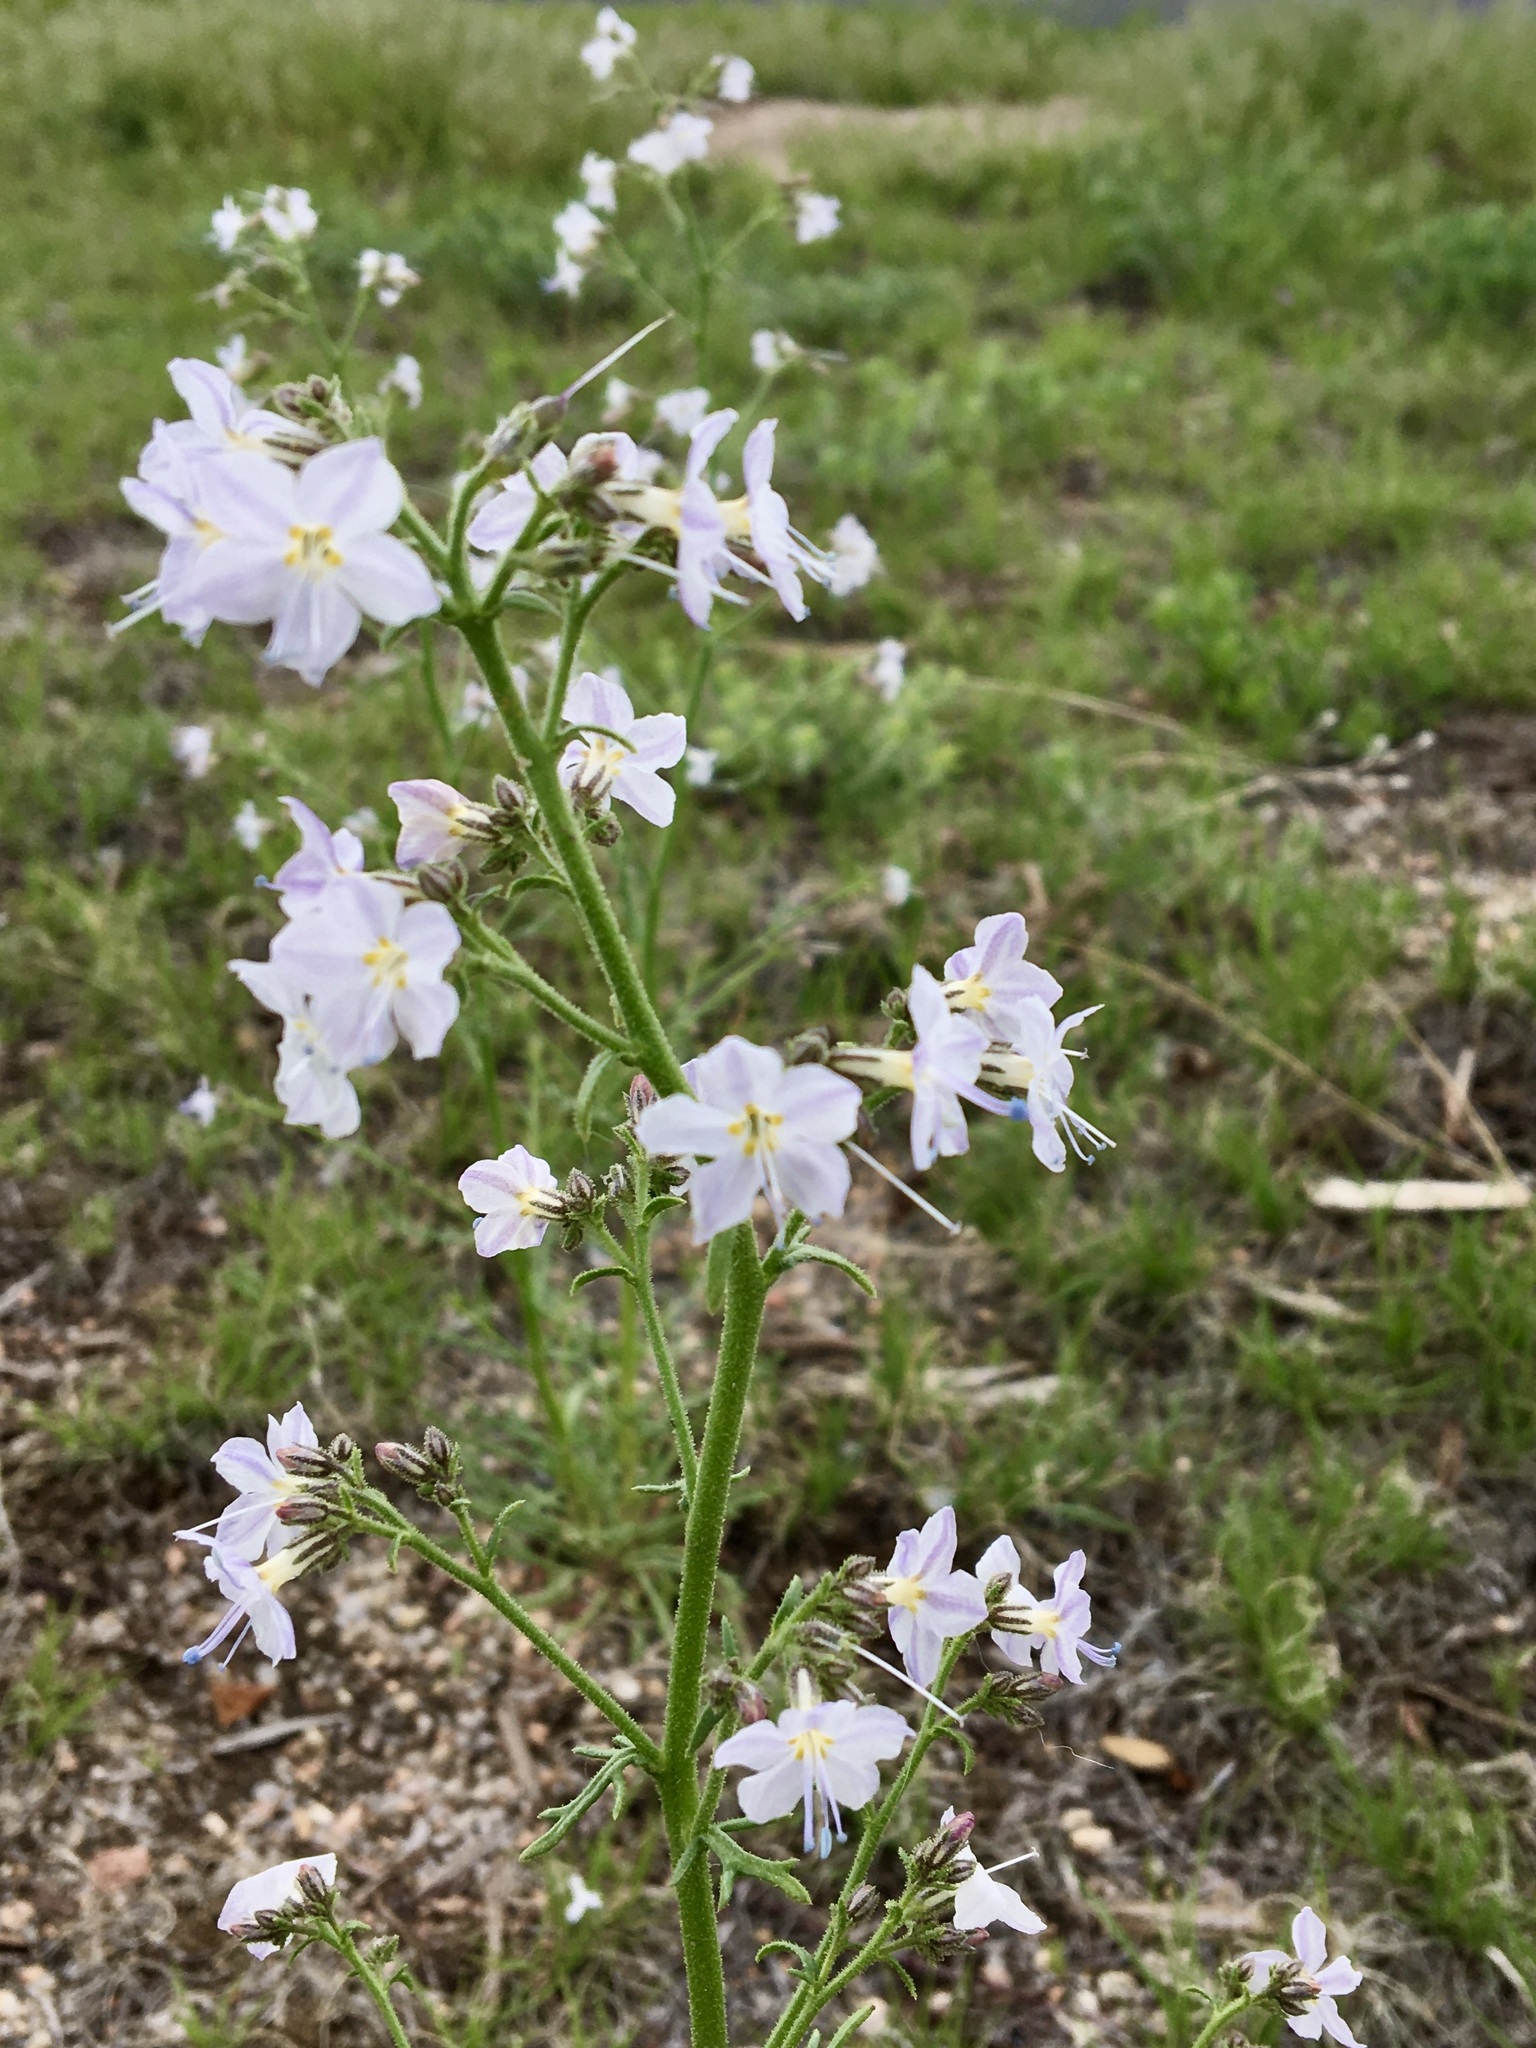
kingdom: Plantae
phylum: Tracheophyta
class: Magnoliopsida
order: Caryophyllales
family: Nyctaginaceae
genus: Mirabilis
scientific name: Mirabilis linearis
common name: Linear-leaved four-o'clock
